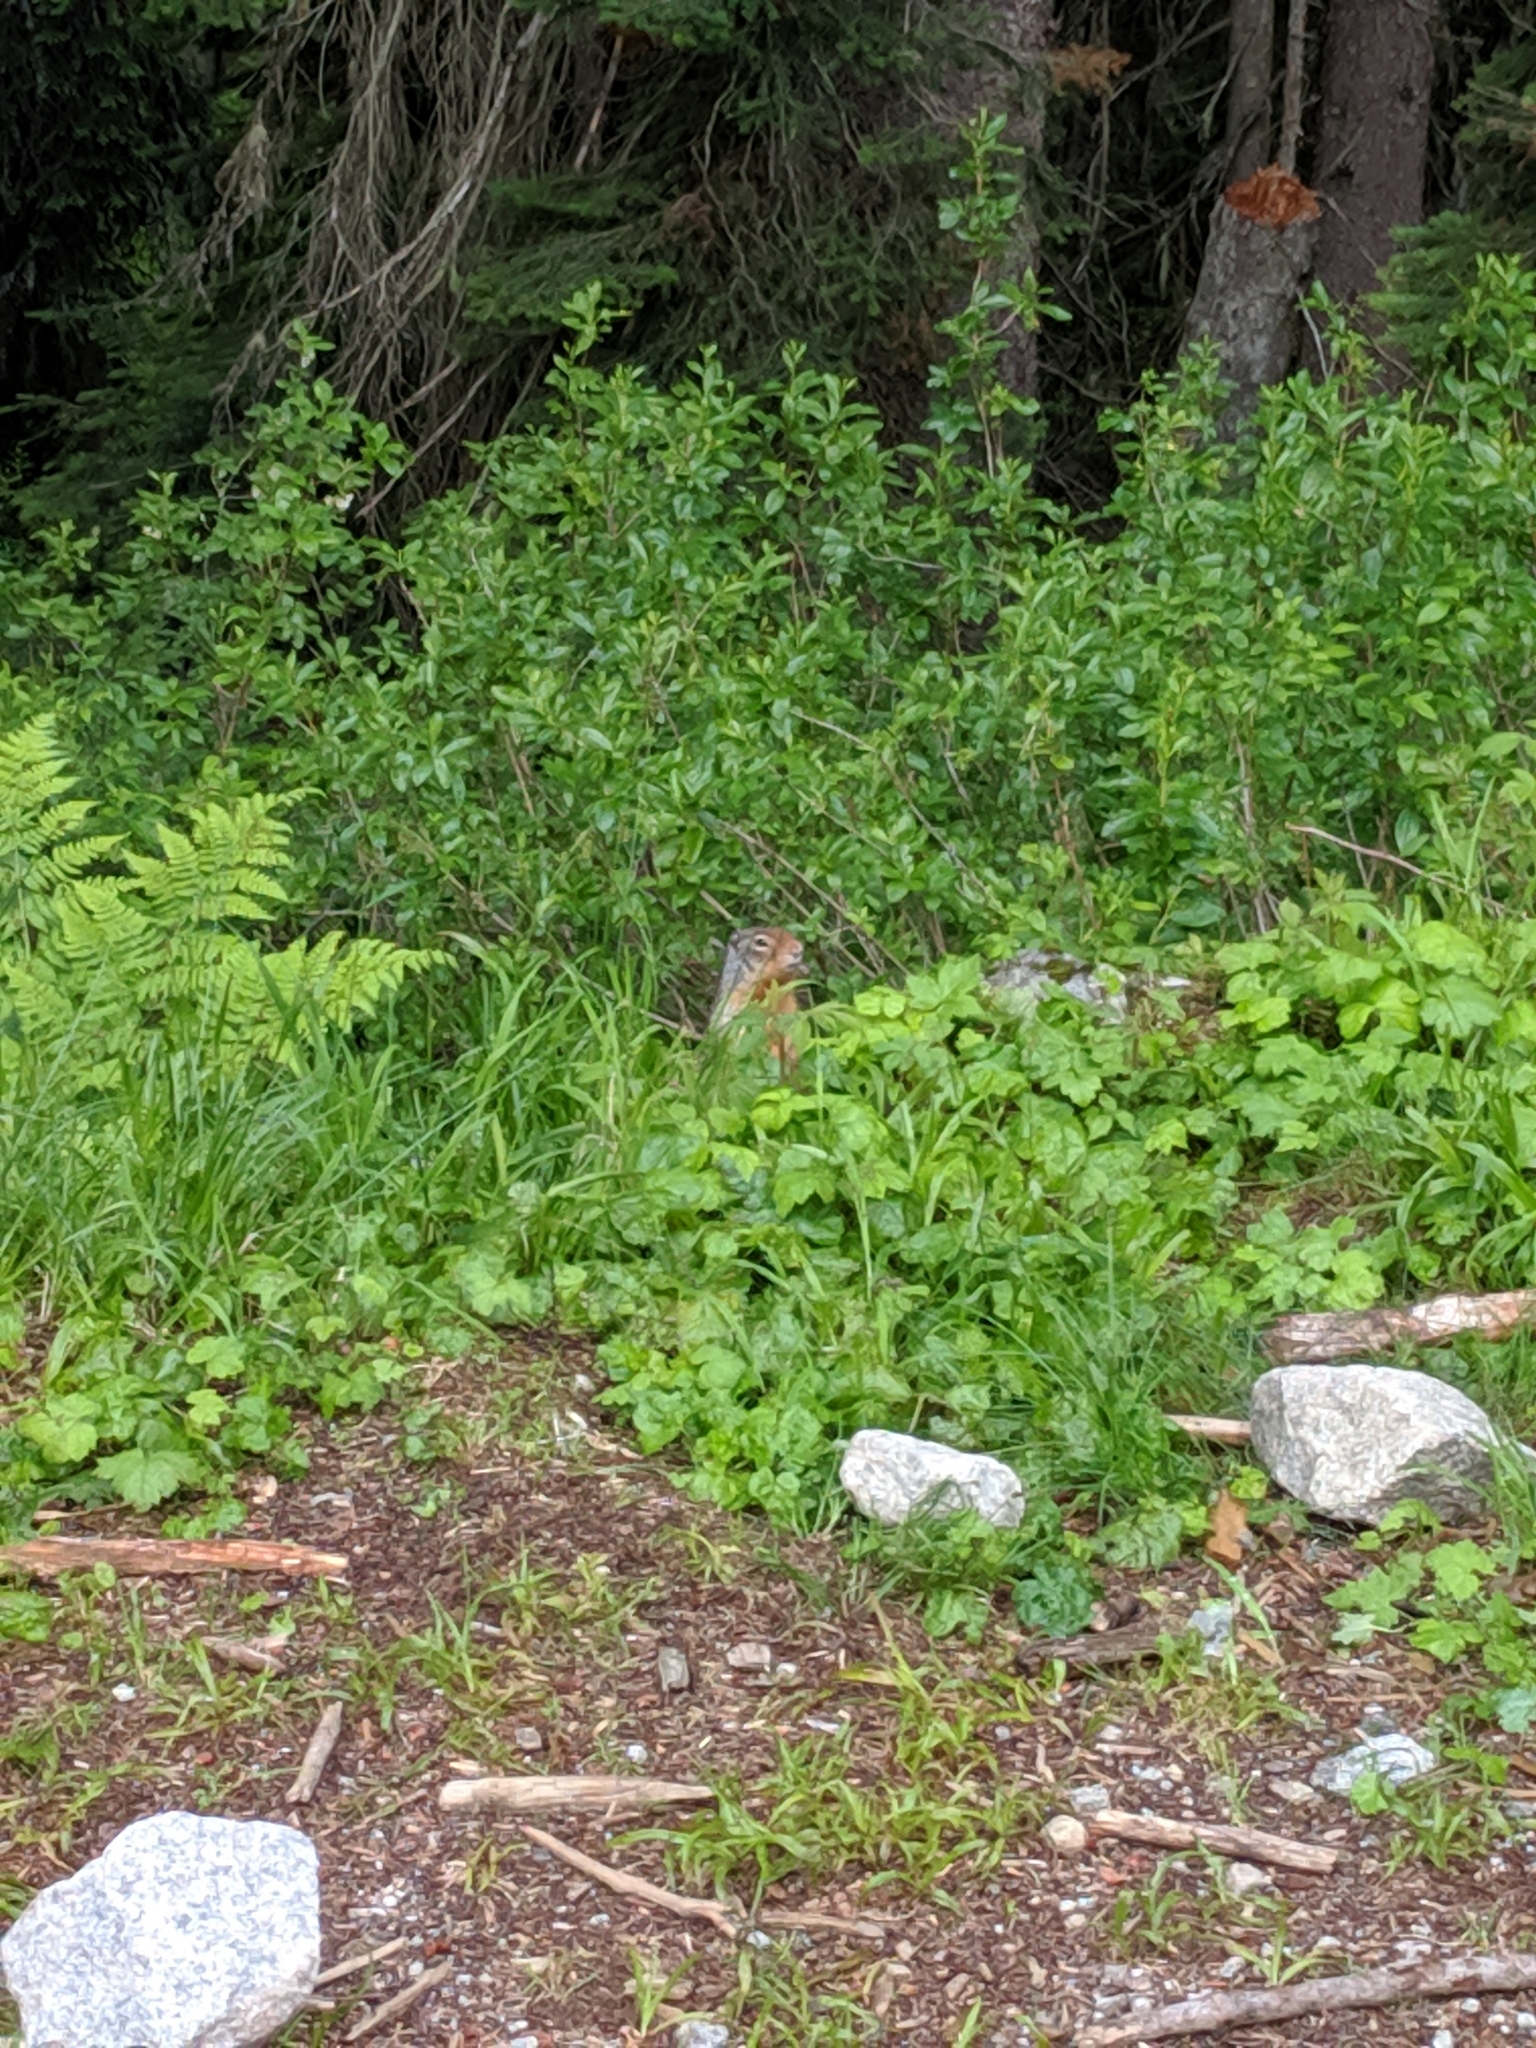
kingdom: Animalia
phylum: Chordata
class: Mammalia
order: Rodentia
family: Sciuridae
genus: Urocitellus
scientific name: Urocitellus columbianus
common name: Columbian ground squirrel
